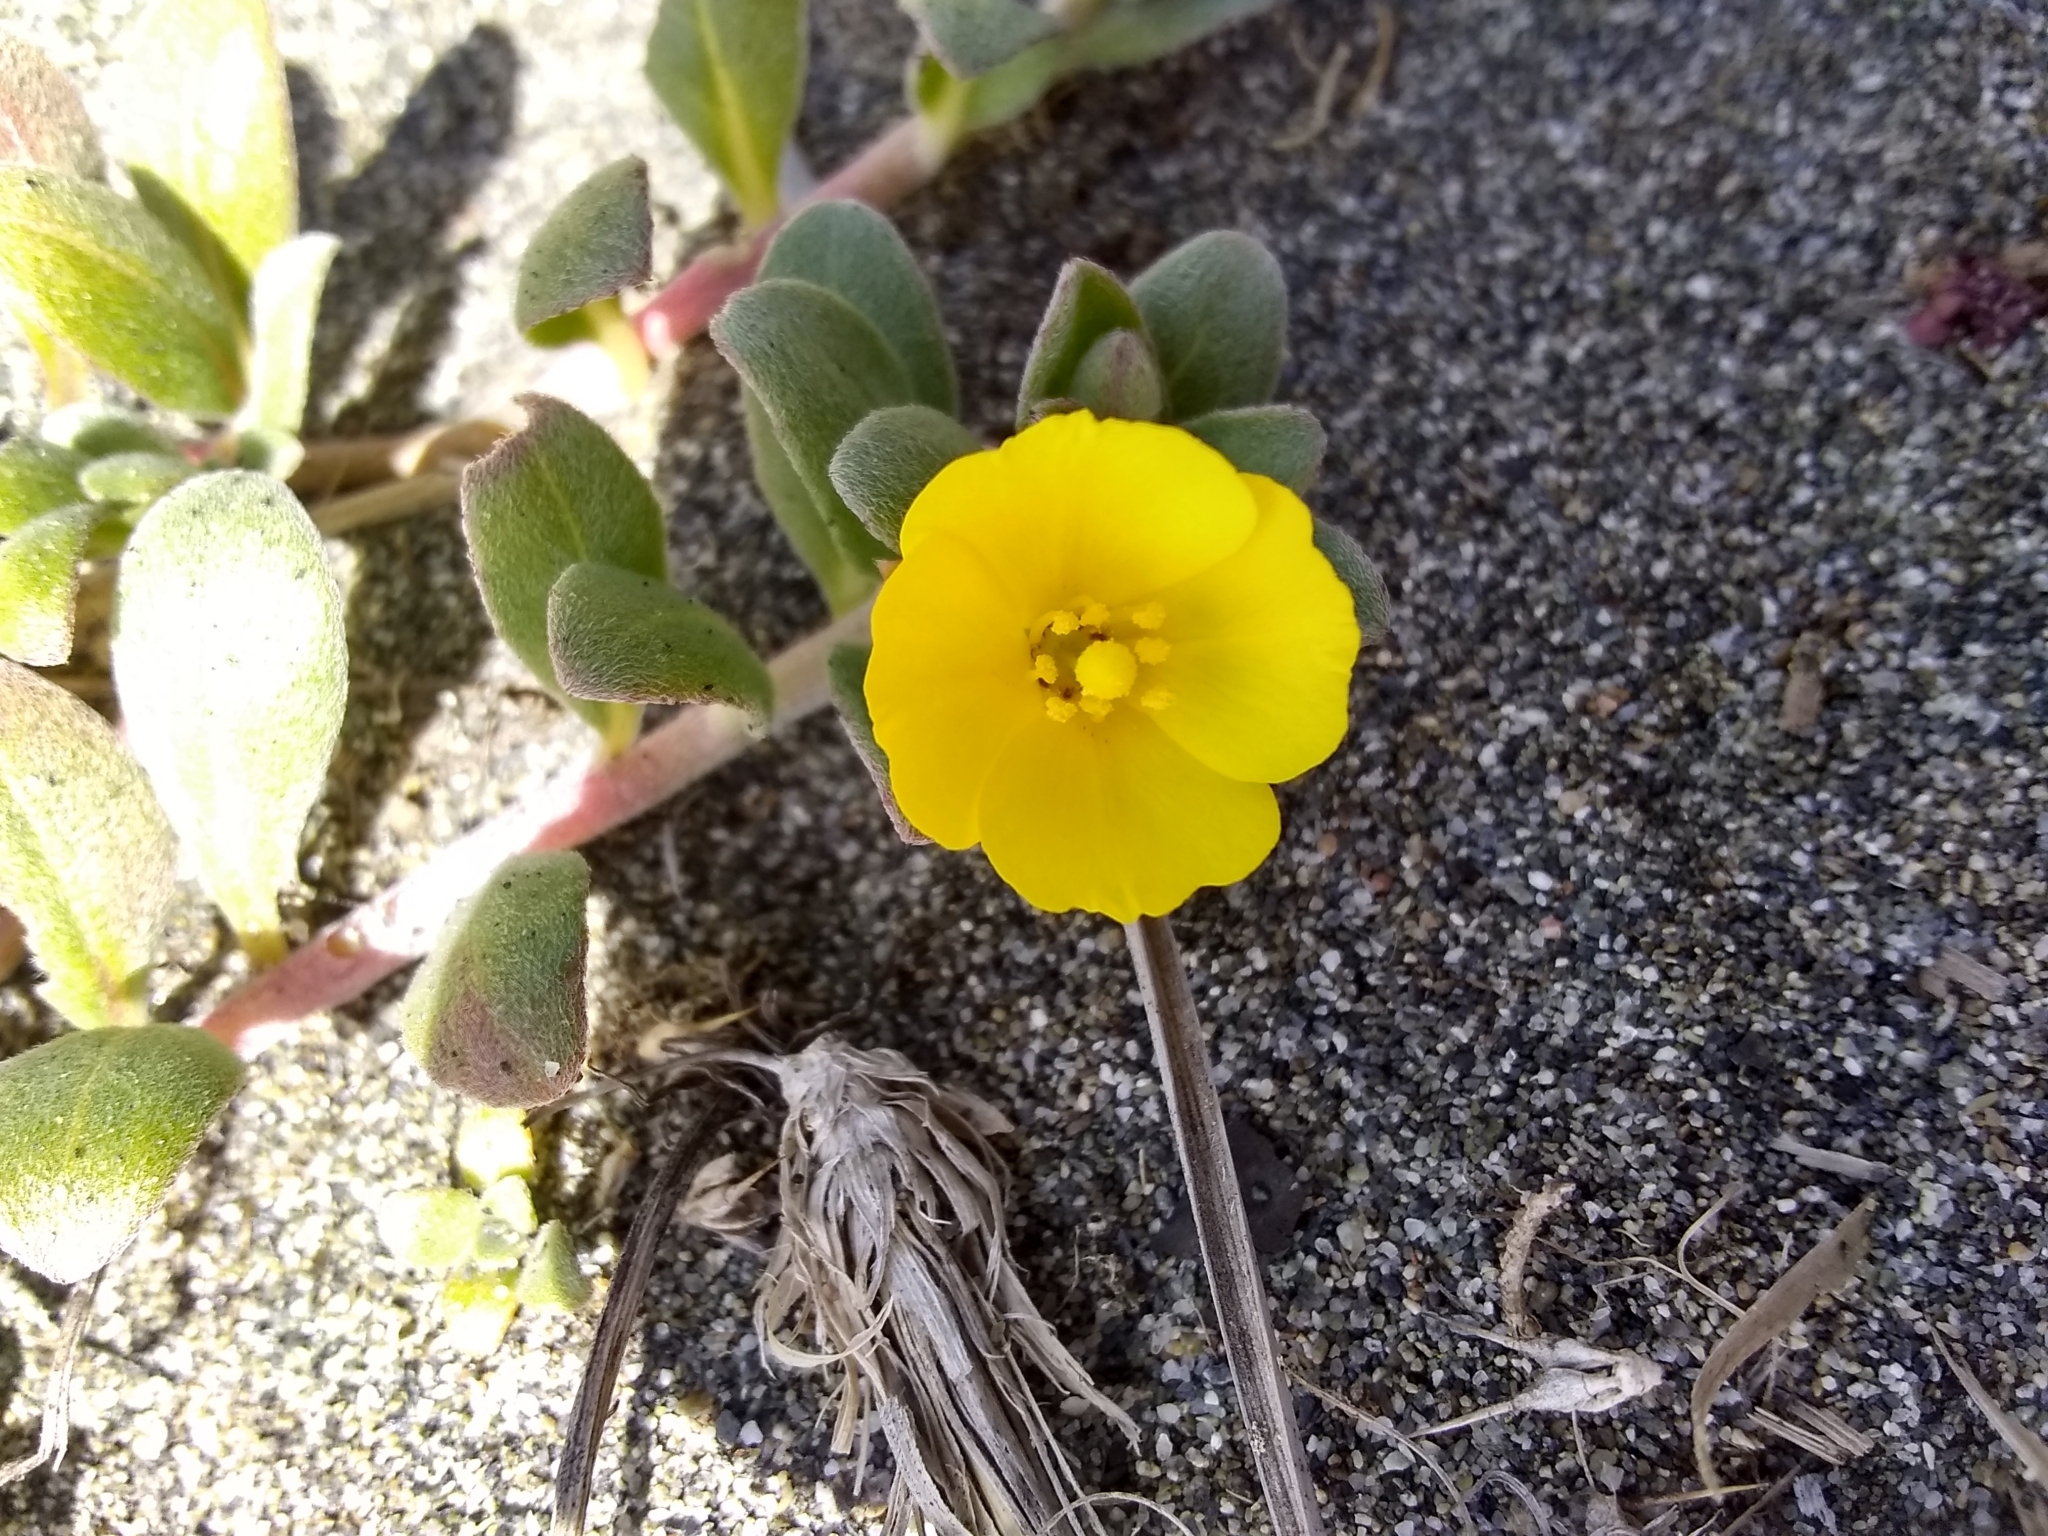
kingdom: Plantae
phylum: Tracheophyta
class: Magnoliopsida
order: Myrtales
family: Onagraceae
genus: Camissoniopsis
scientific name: Camissoniopsis cheiranthifolia
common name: Beach suncup
